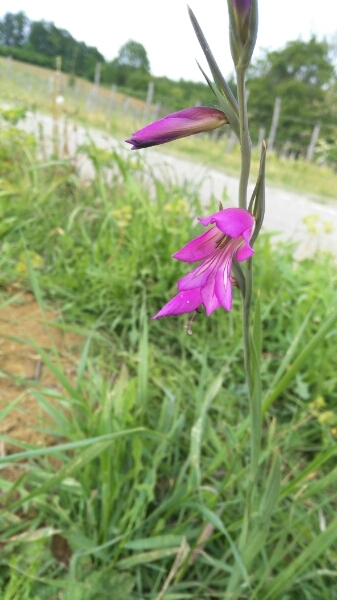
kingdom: Plantae
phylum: Tracheophyta
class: Liliopsida
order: Asparagales
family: Iridaceae
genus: Gladiolus
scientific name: Gladiolus italicus
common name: Field gladiolus
